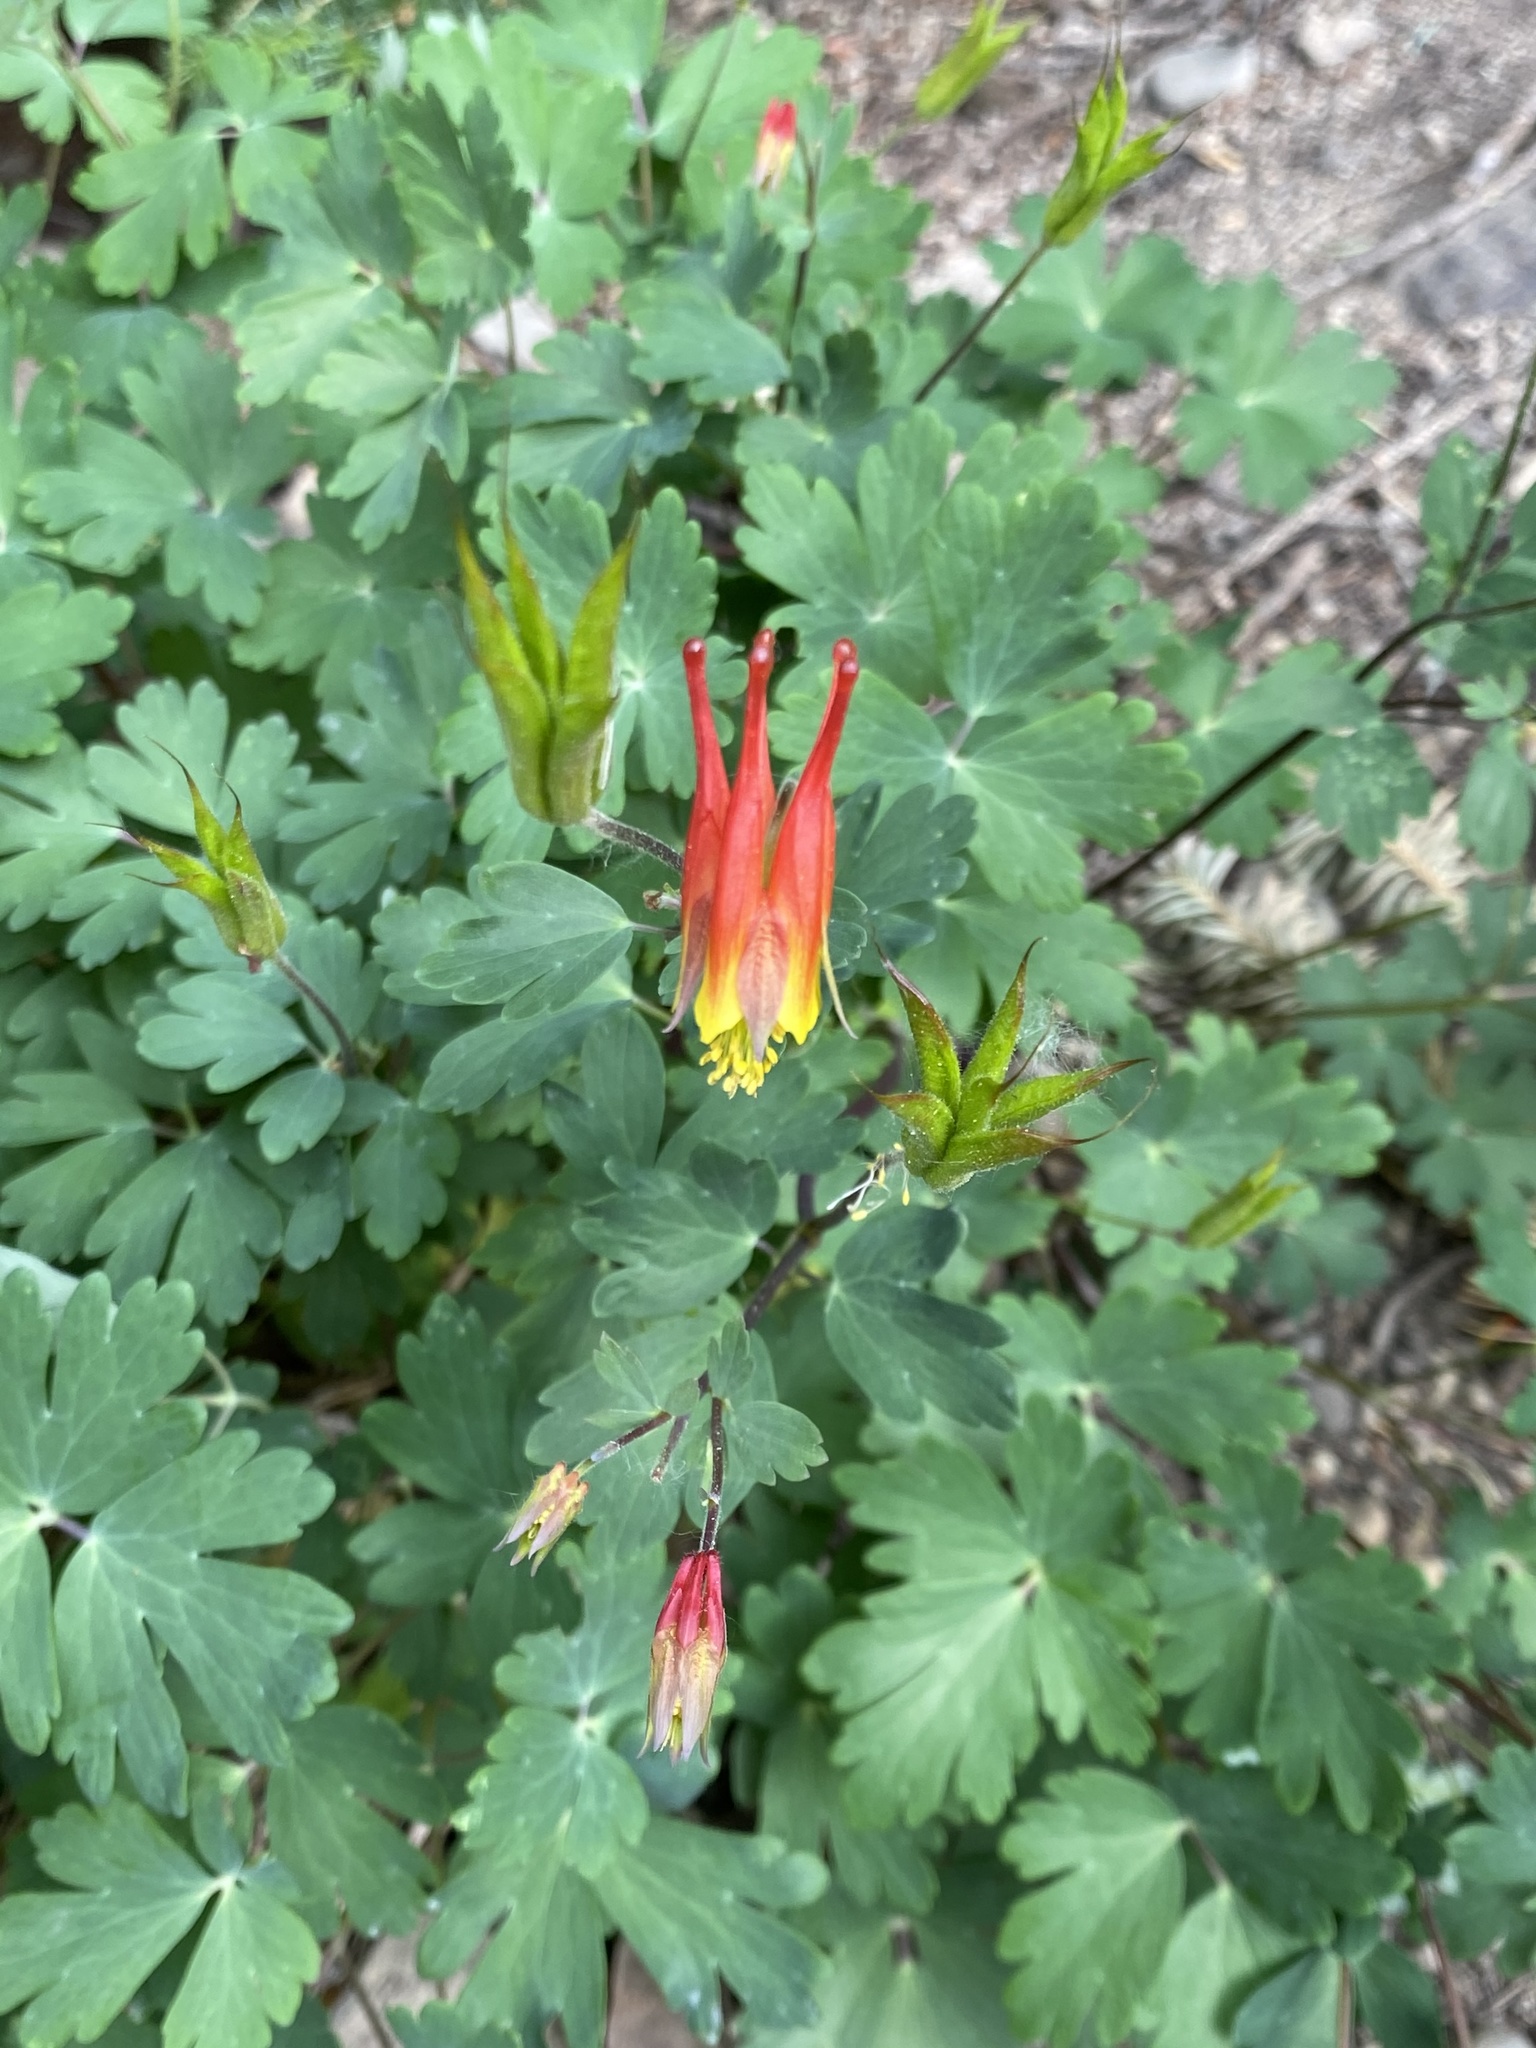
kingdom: Plantae
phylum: Tracheophyta
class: Magnoliopsida
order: Ranunculales
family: Ranunculaceae
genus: Aquilegia
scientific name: Aquilegia elegantula
